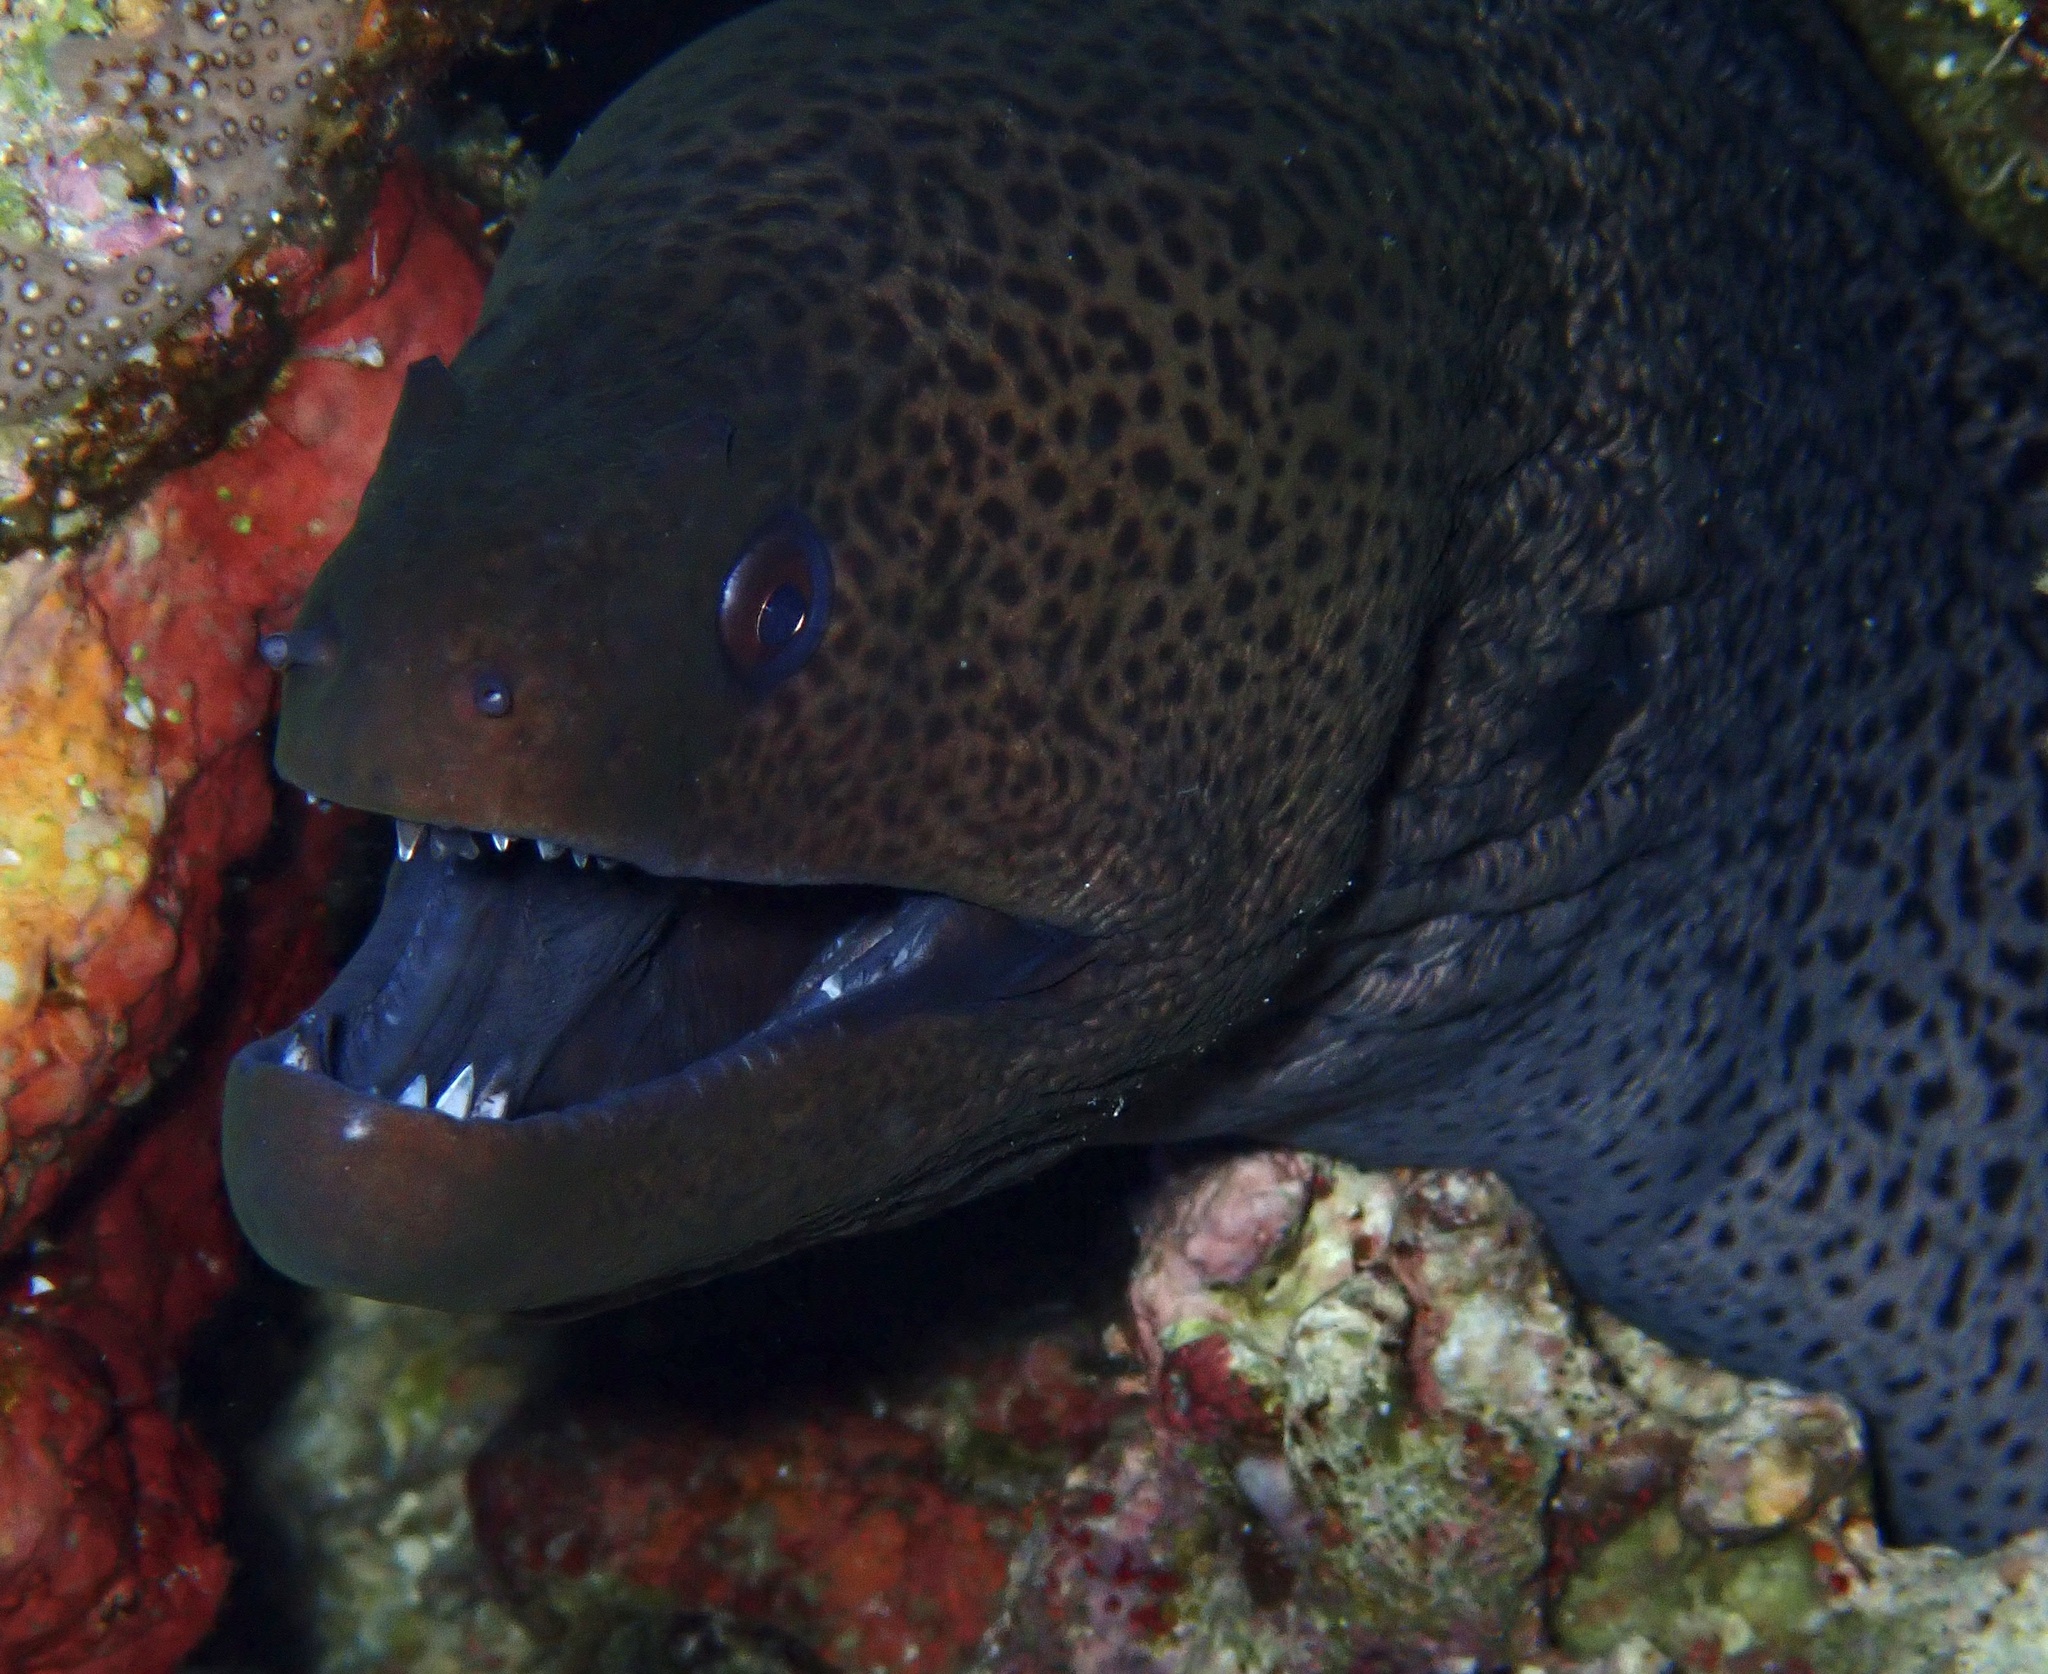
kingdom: Animalia
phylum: Chordata
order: Anguilliformes
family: Muraenidae
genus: Gymnothorax
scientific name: Gymnothorax javanicus
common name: Giant moray
